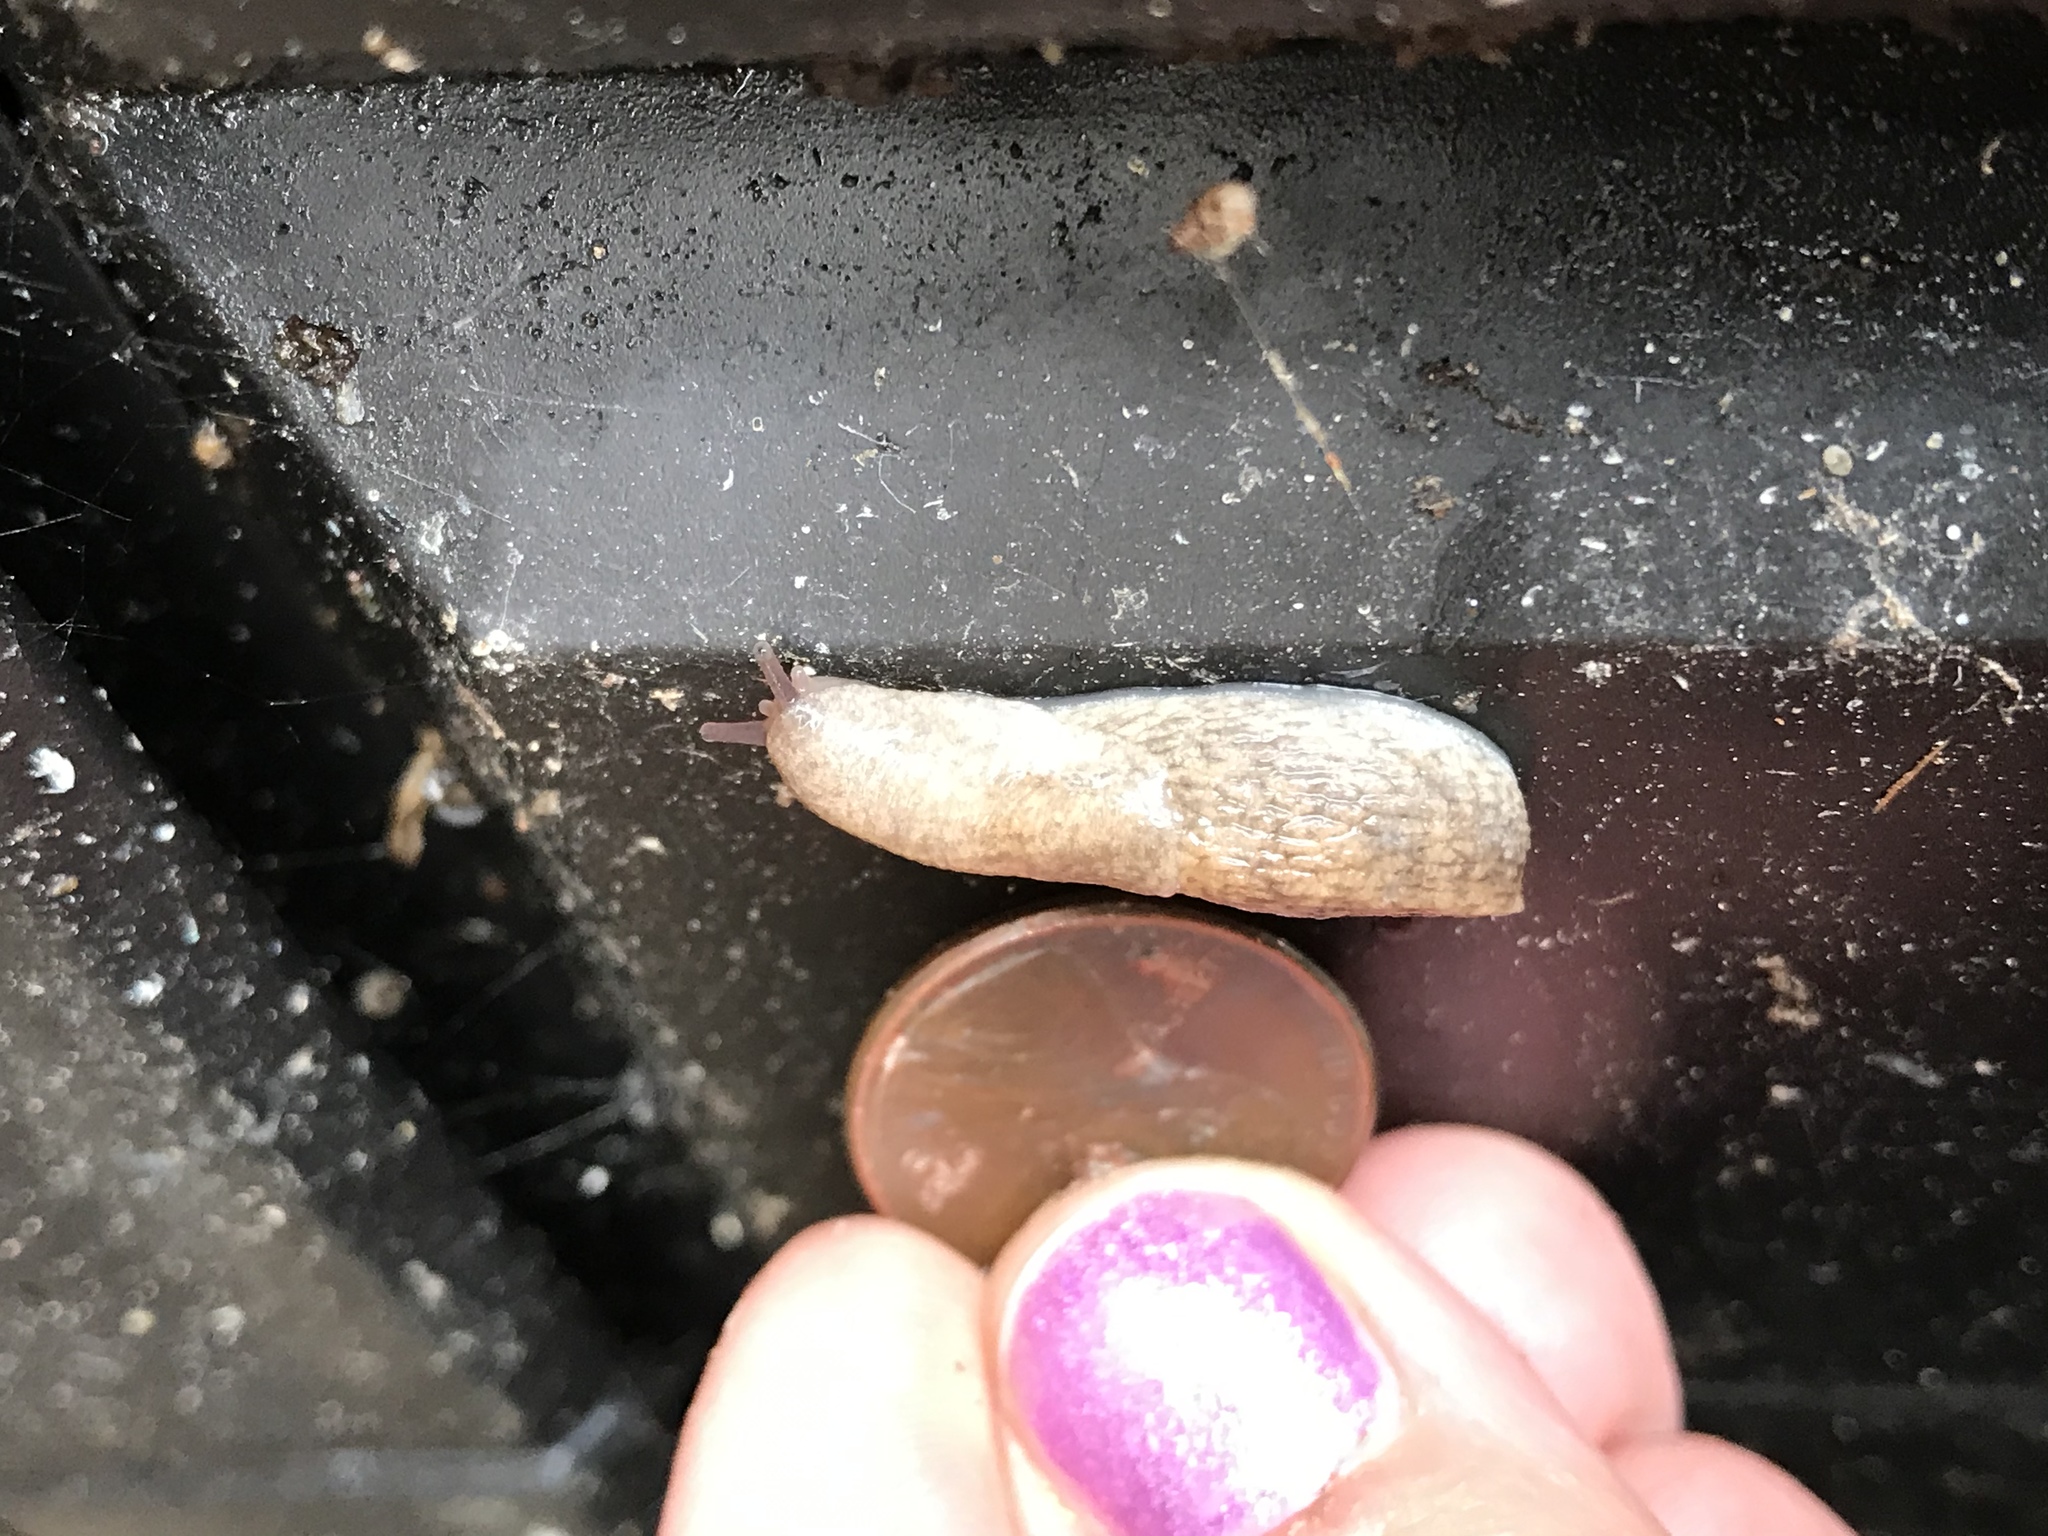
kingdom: Animalia
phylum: Mollusca
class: Gastropoda
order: Stylommatophora
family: Agriolimacidae
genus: Deroceras
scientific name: Deroceras reticulatum
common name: Gray field slug
